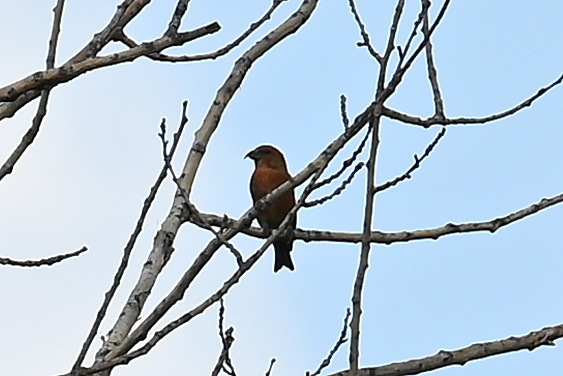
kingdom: Animalia
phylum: Chordata
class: Aves
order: Passeriformes
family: Fringillidae
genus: Loxia
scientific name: Loxia curvirostra
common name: Red crossbill
